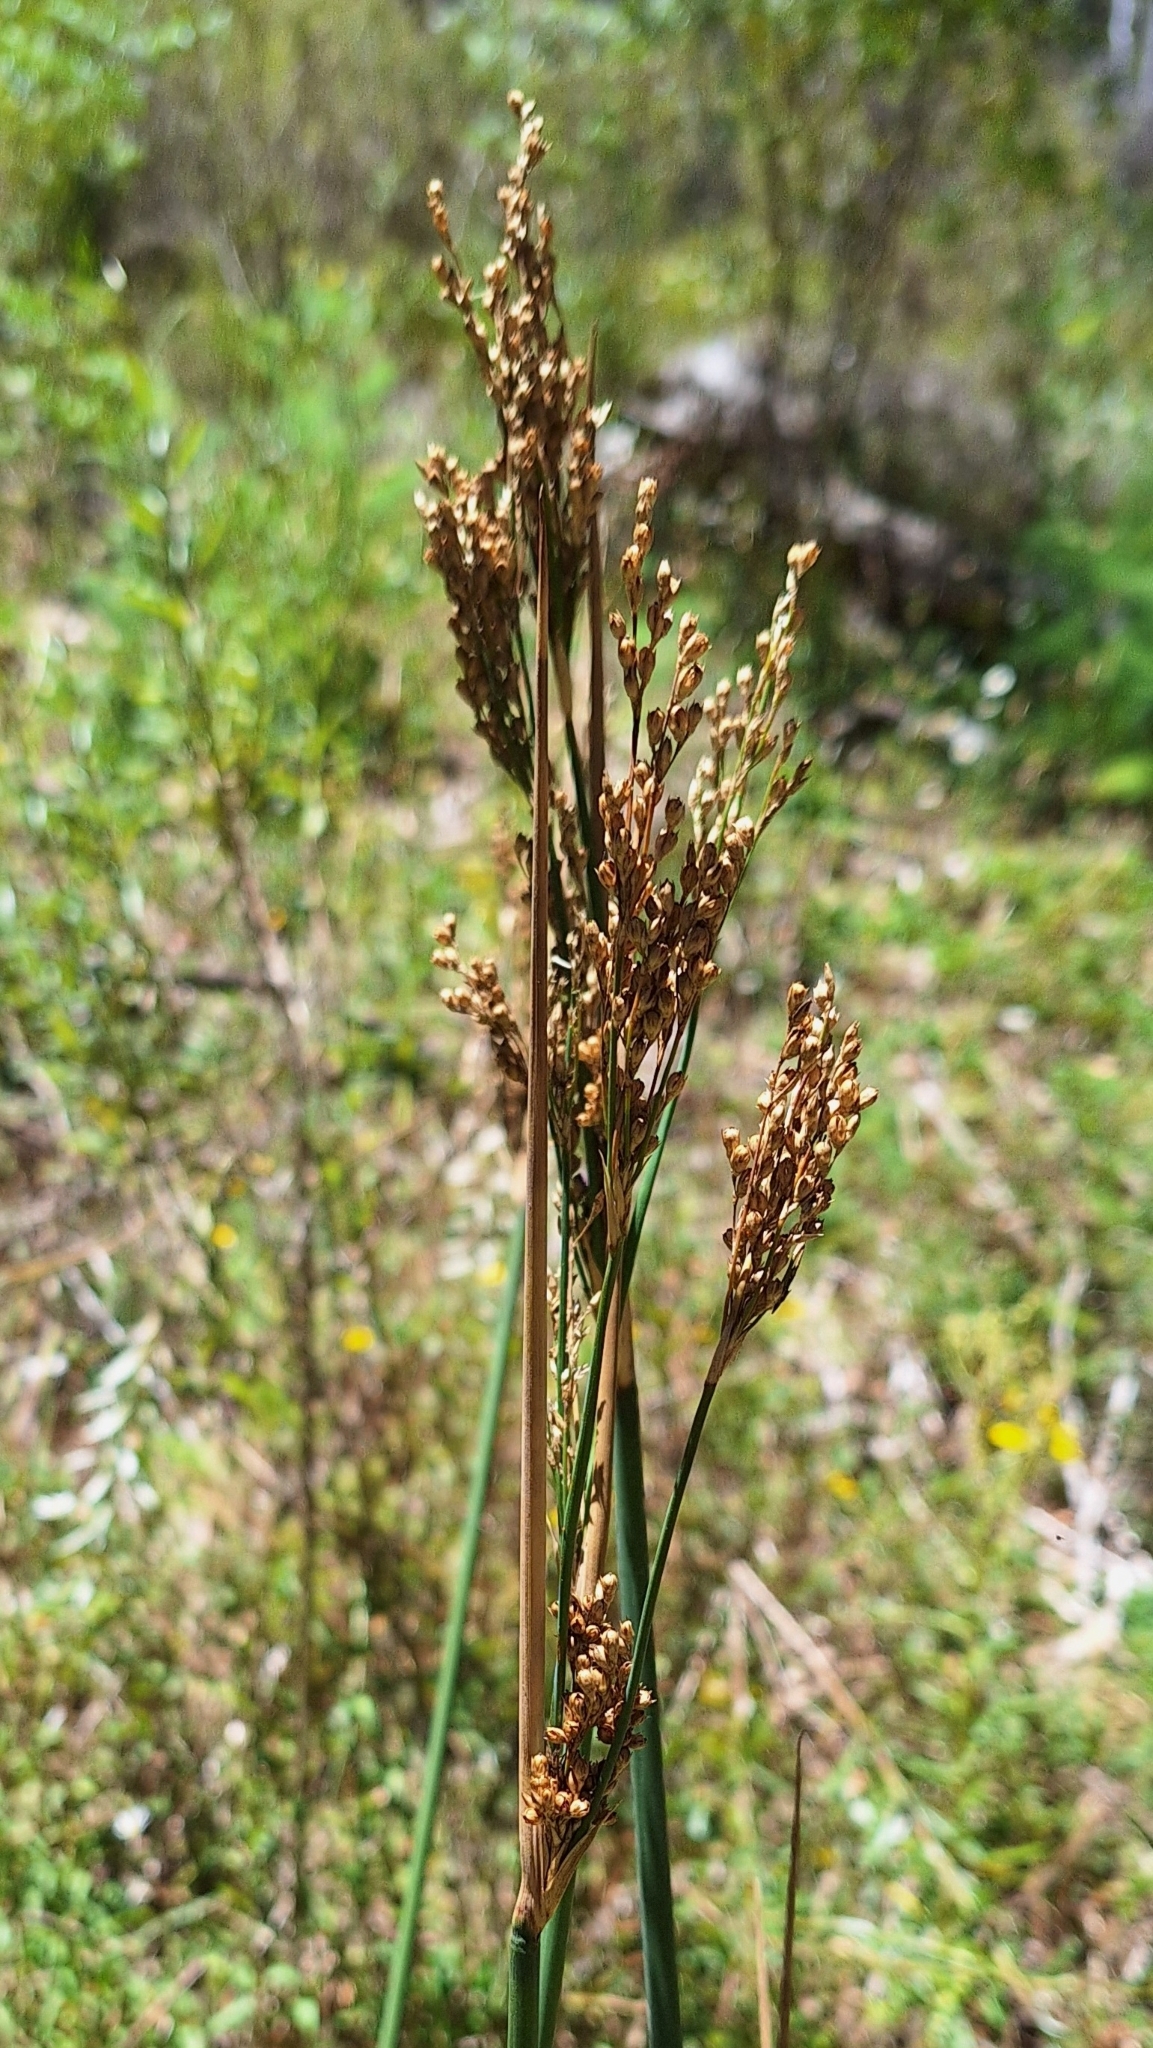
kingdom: Plantae
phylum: Tracheophyta
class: Liliopsida
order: Poales
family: Juncaceae
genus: Juncus
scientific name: Juncus pallidus
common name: Great soft-rush
